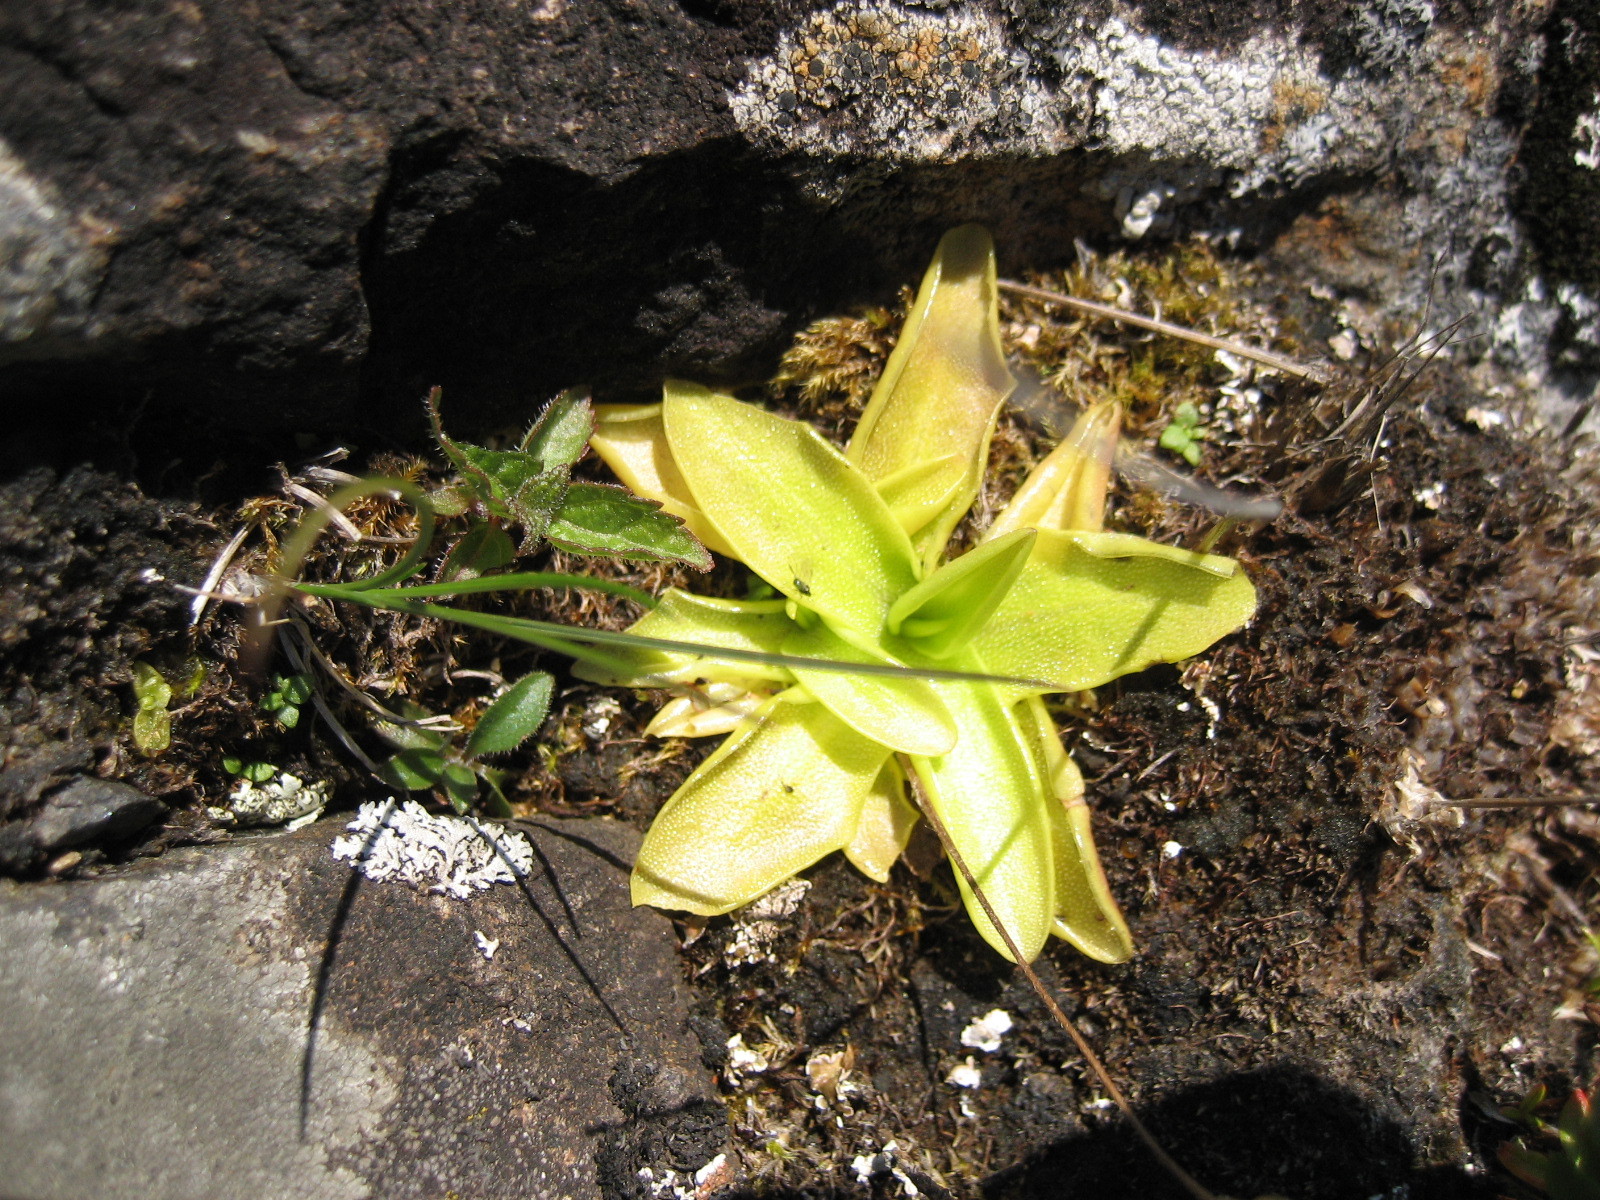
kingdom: Plantae
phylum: Tracheophyta
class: Magnoliopsida
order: Lamiales
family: Lentibulariaceae
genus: Pinguicula
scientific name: Pinguicula vulgaris
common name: Common butterwort
